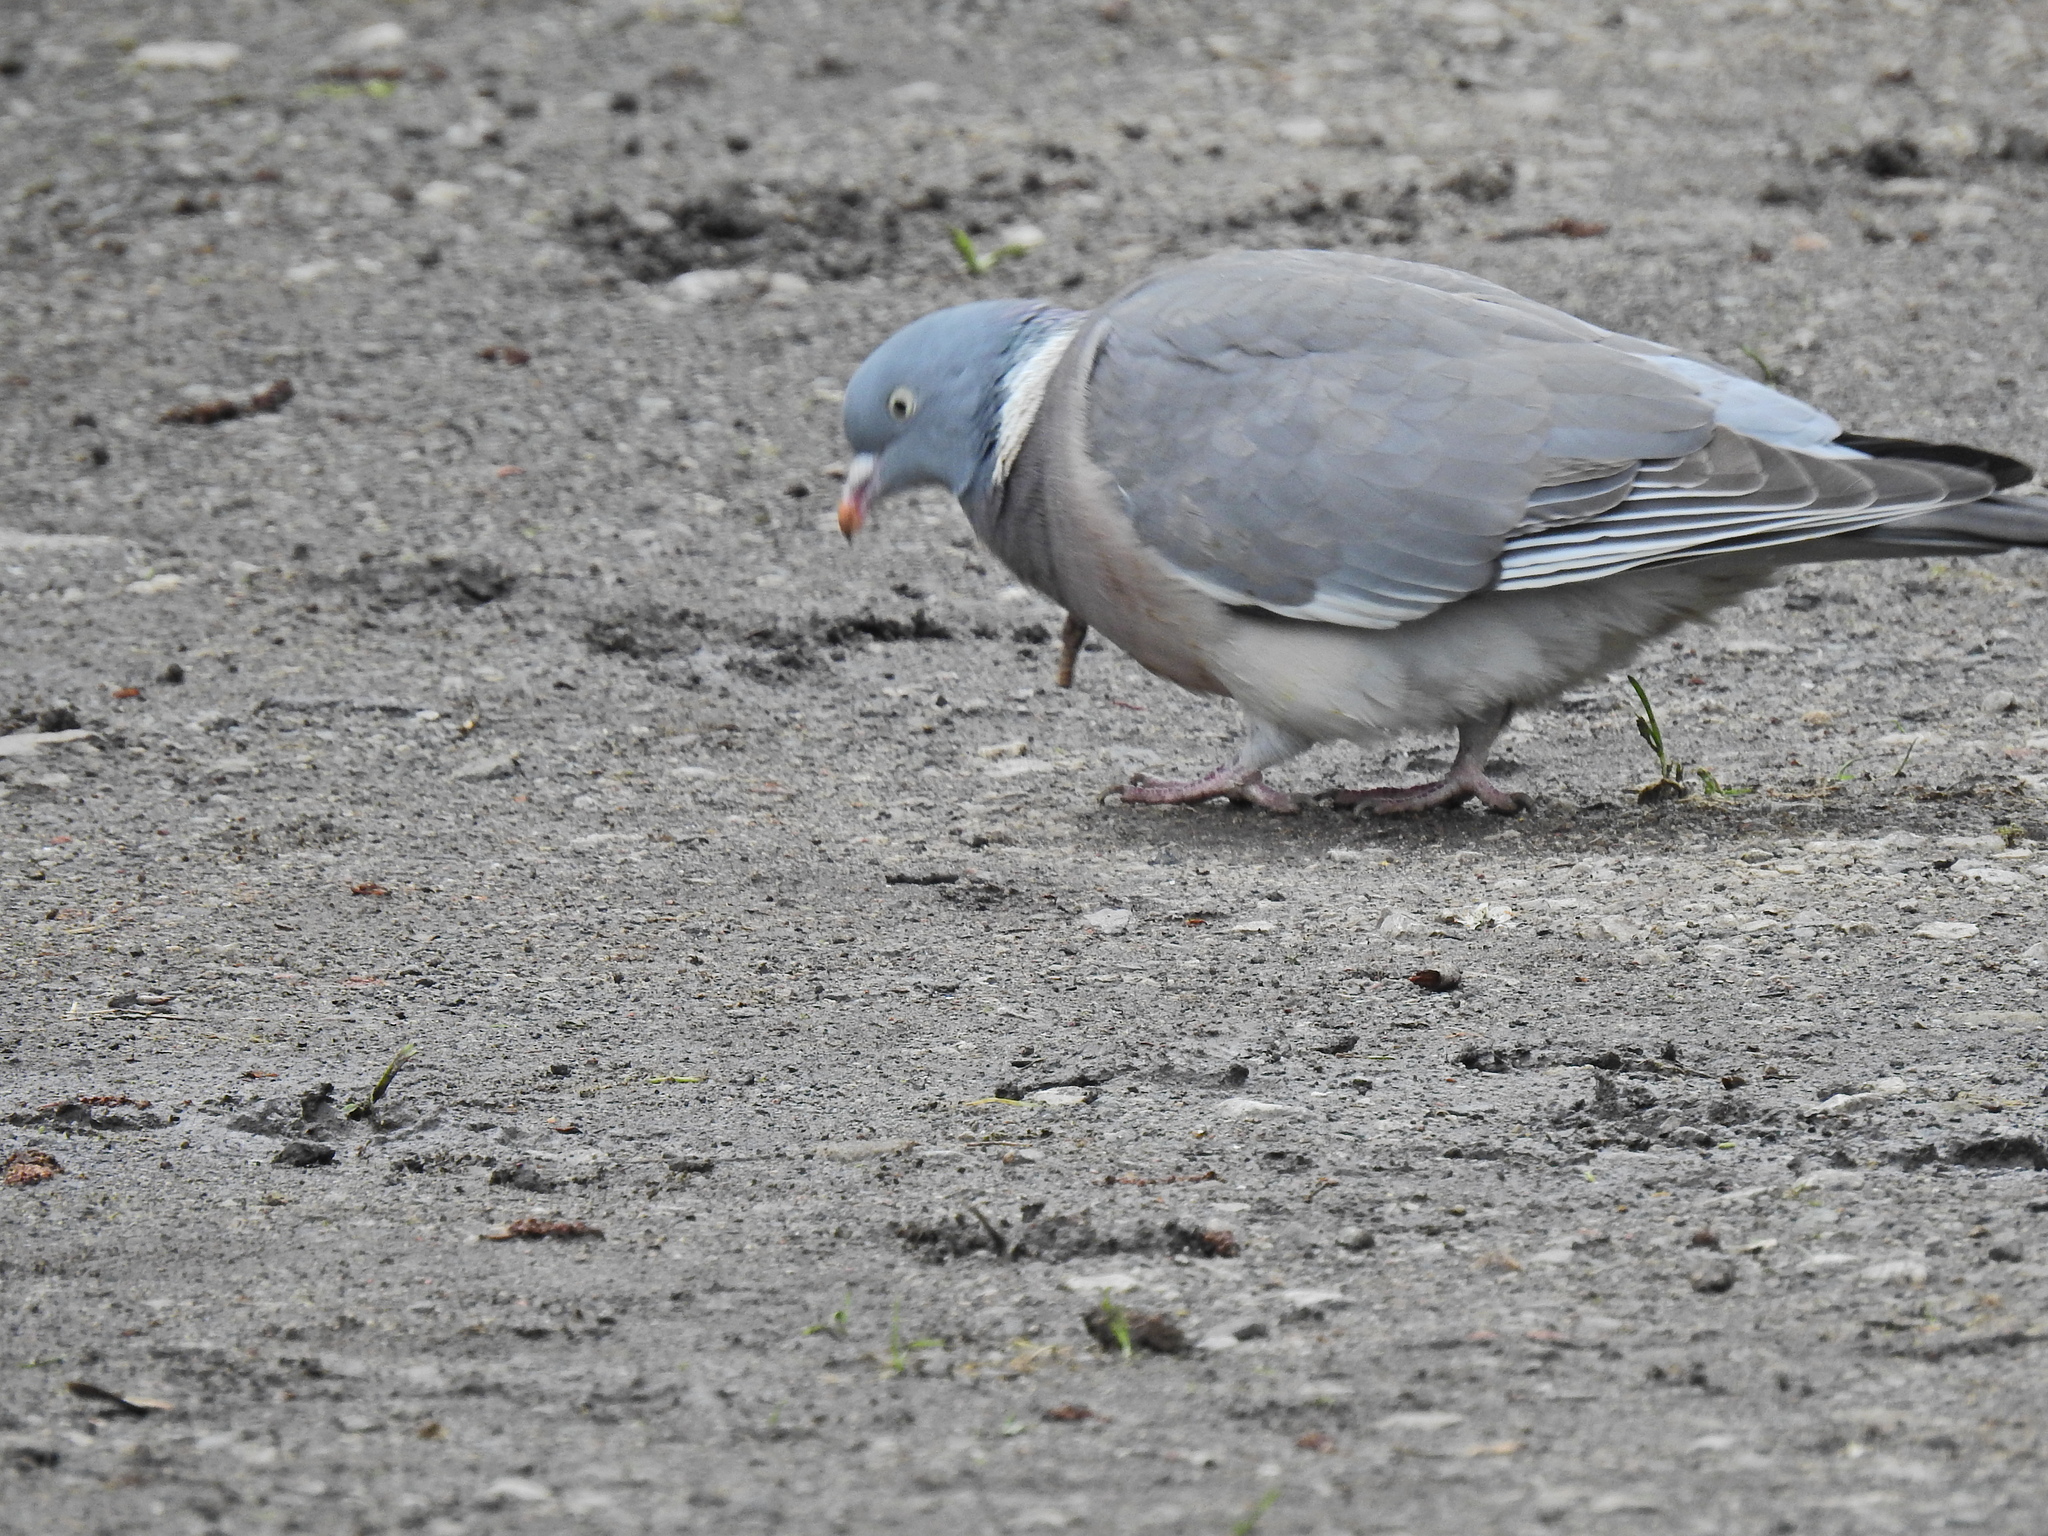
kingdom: Animalia
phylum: Chordata
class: Aves
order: Columbiformes
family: Columbidae
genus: Columba
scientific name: Columba palumbus
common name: Common wood pigeon
